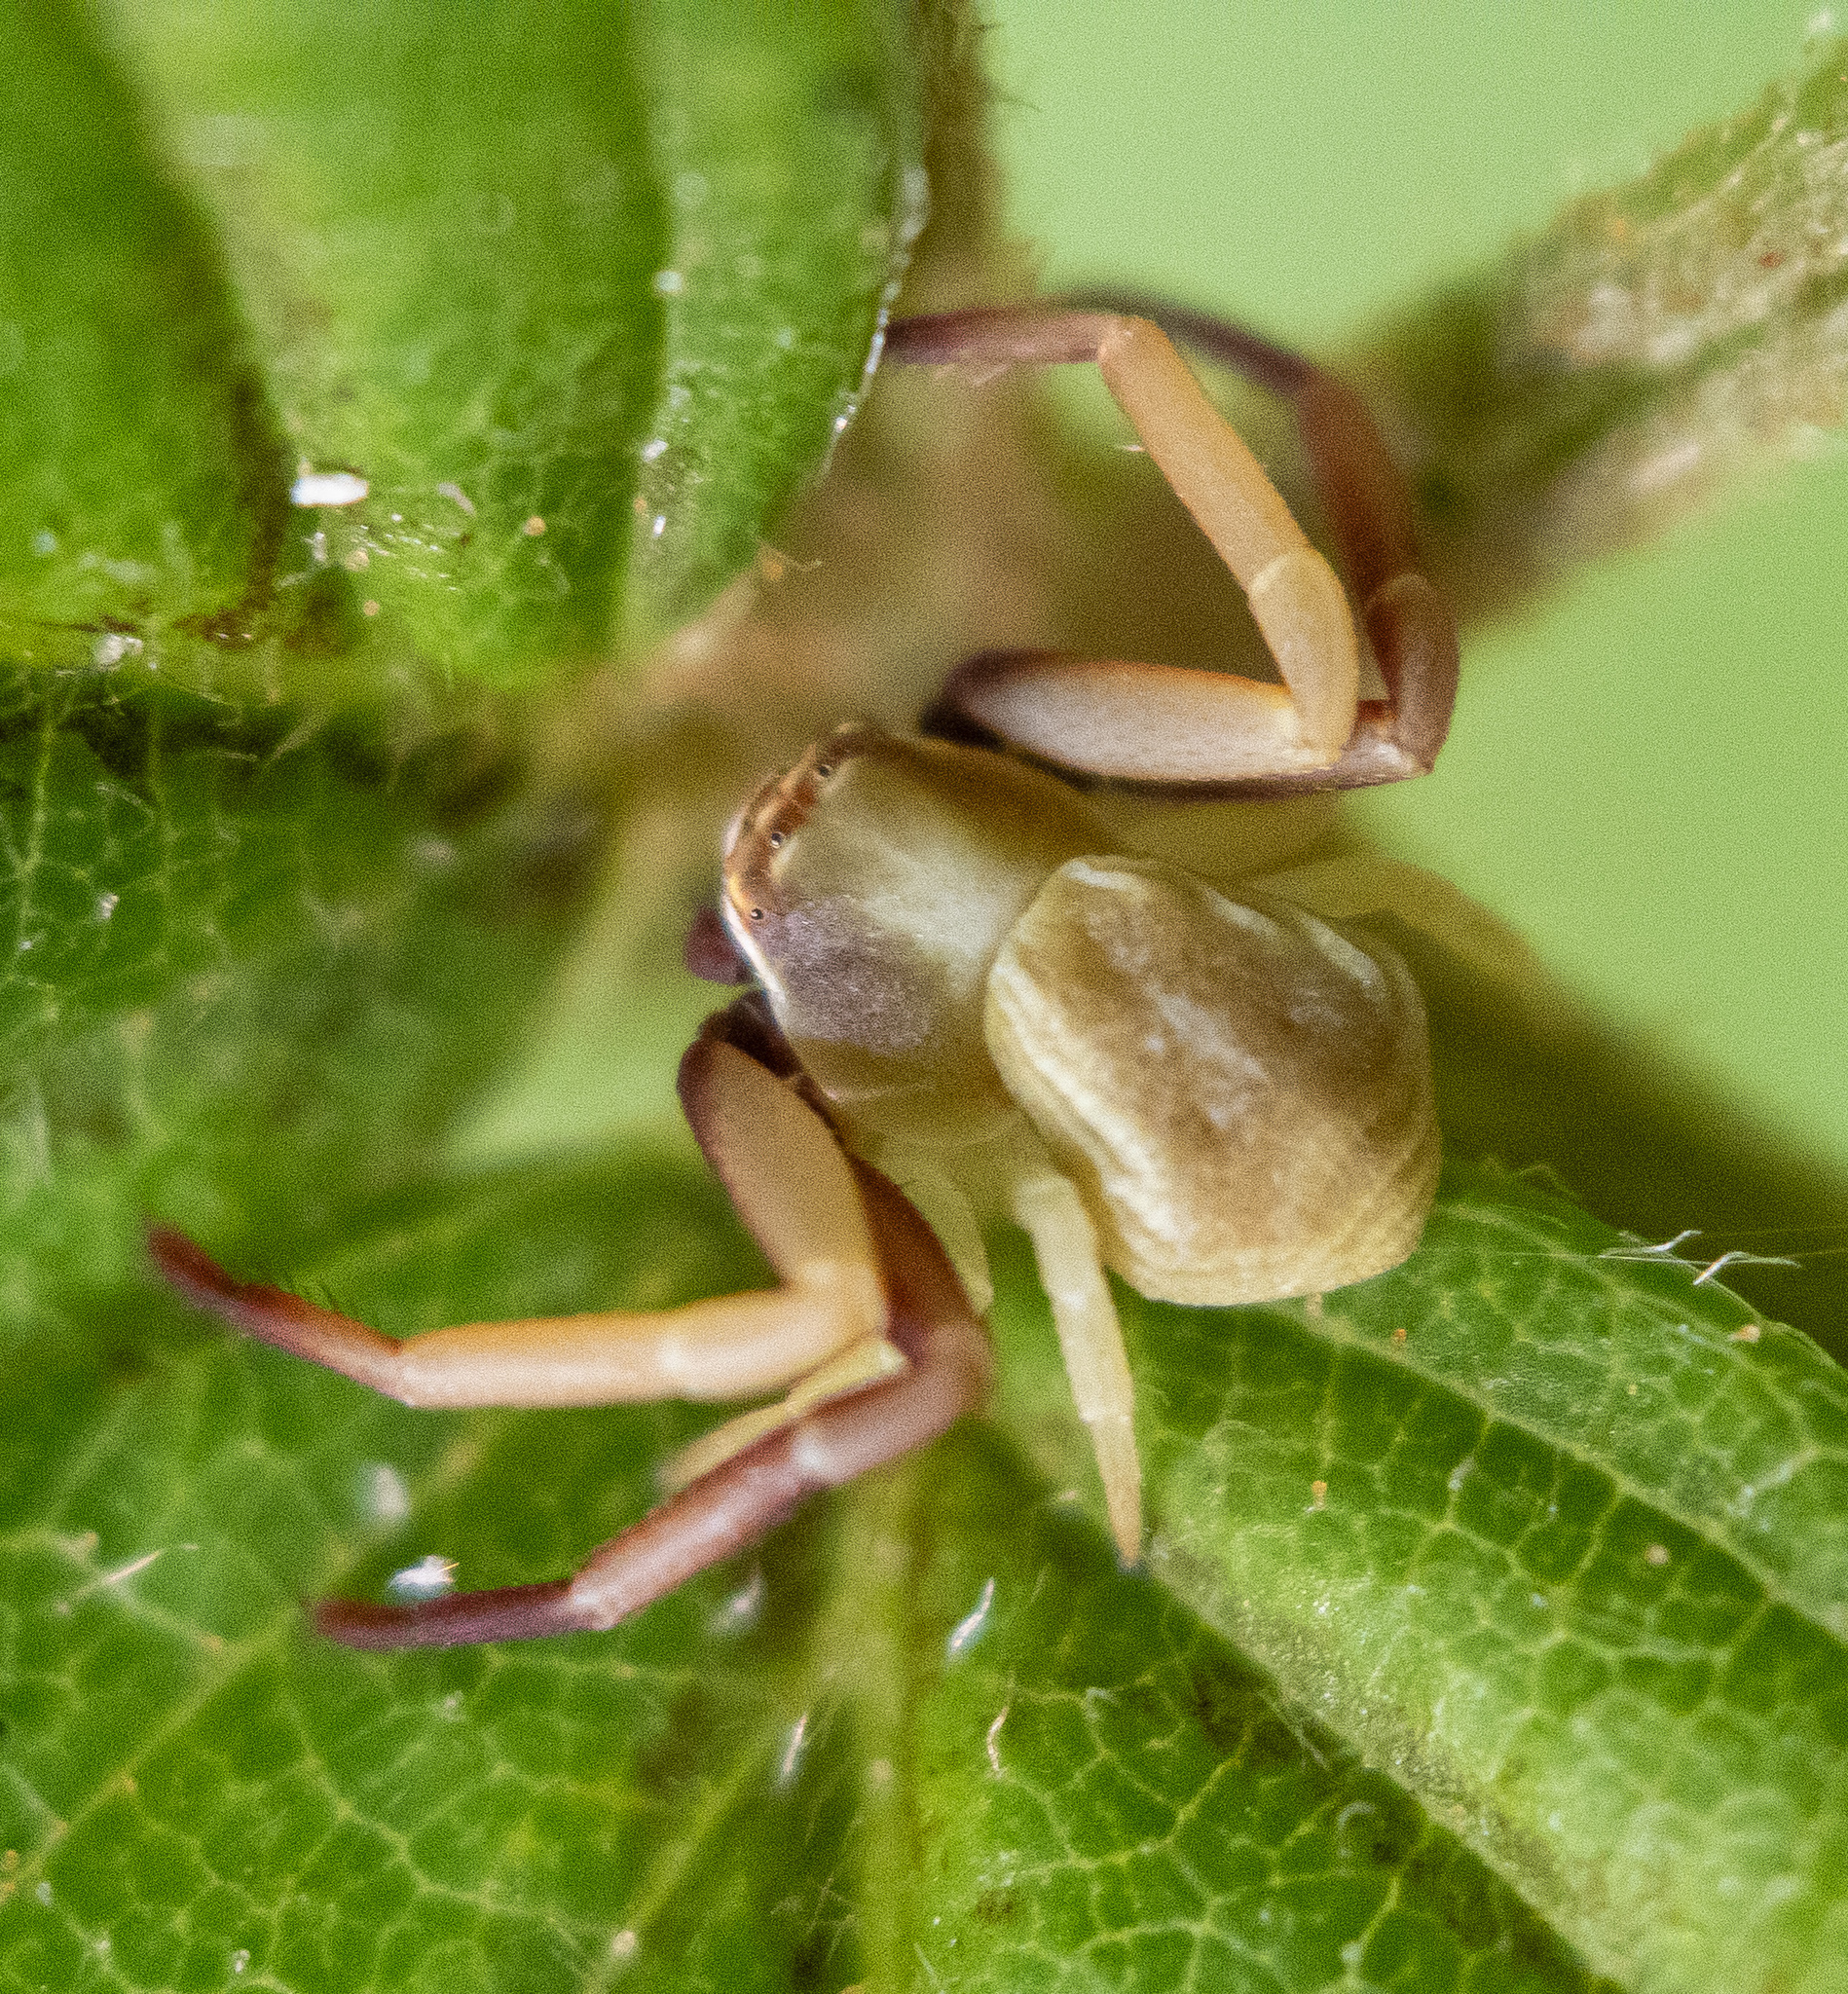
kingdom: Animalia
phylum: Arthropoda
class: Arachnida
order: Araneae
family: Thomisidae
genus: Misumenoides
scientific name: Misumenoides formosipes
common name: White-banded crab spider
